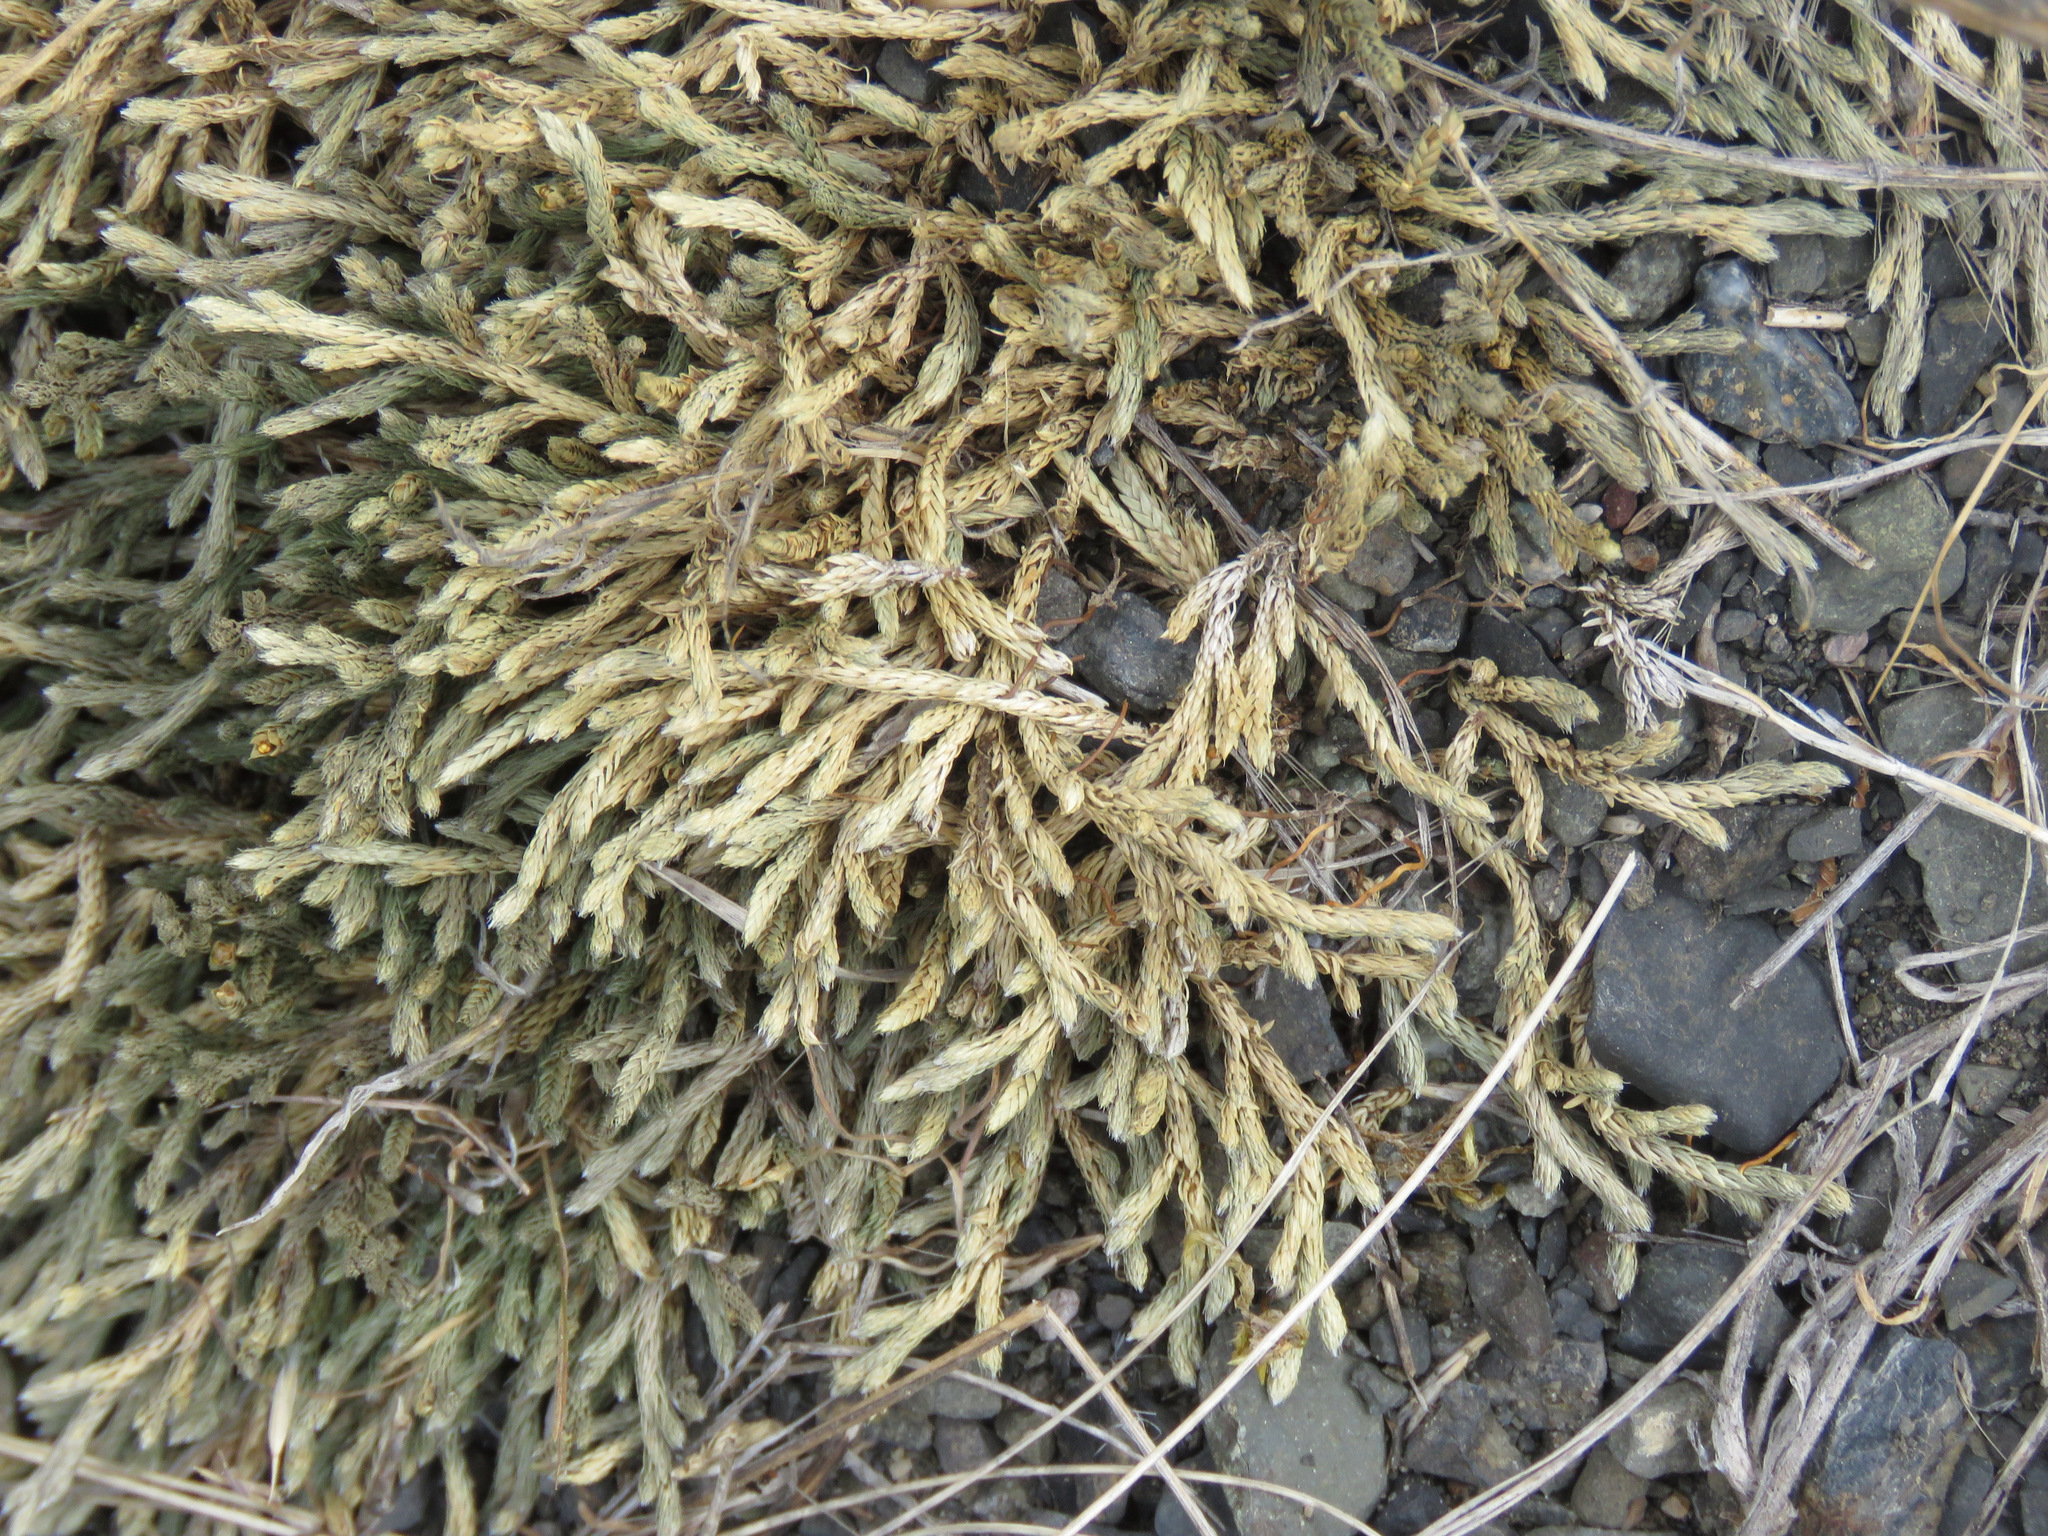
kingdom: Plantae
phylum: Tracheophyta
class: Lycopodiopsida
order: Selaginellales
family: Selaginellaceae
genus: Selaginella
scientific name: Selaginella wallacei
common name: Wallace's selaginella
